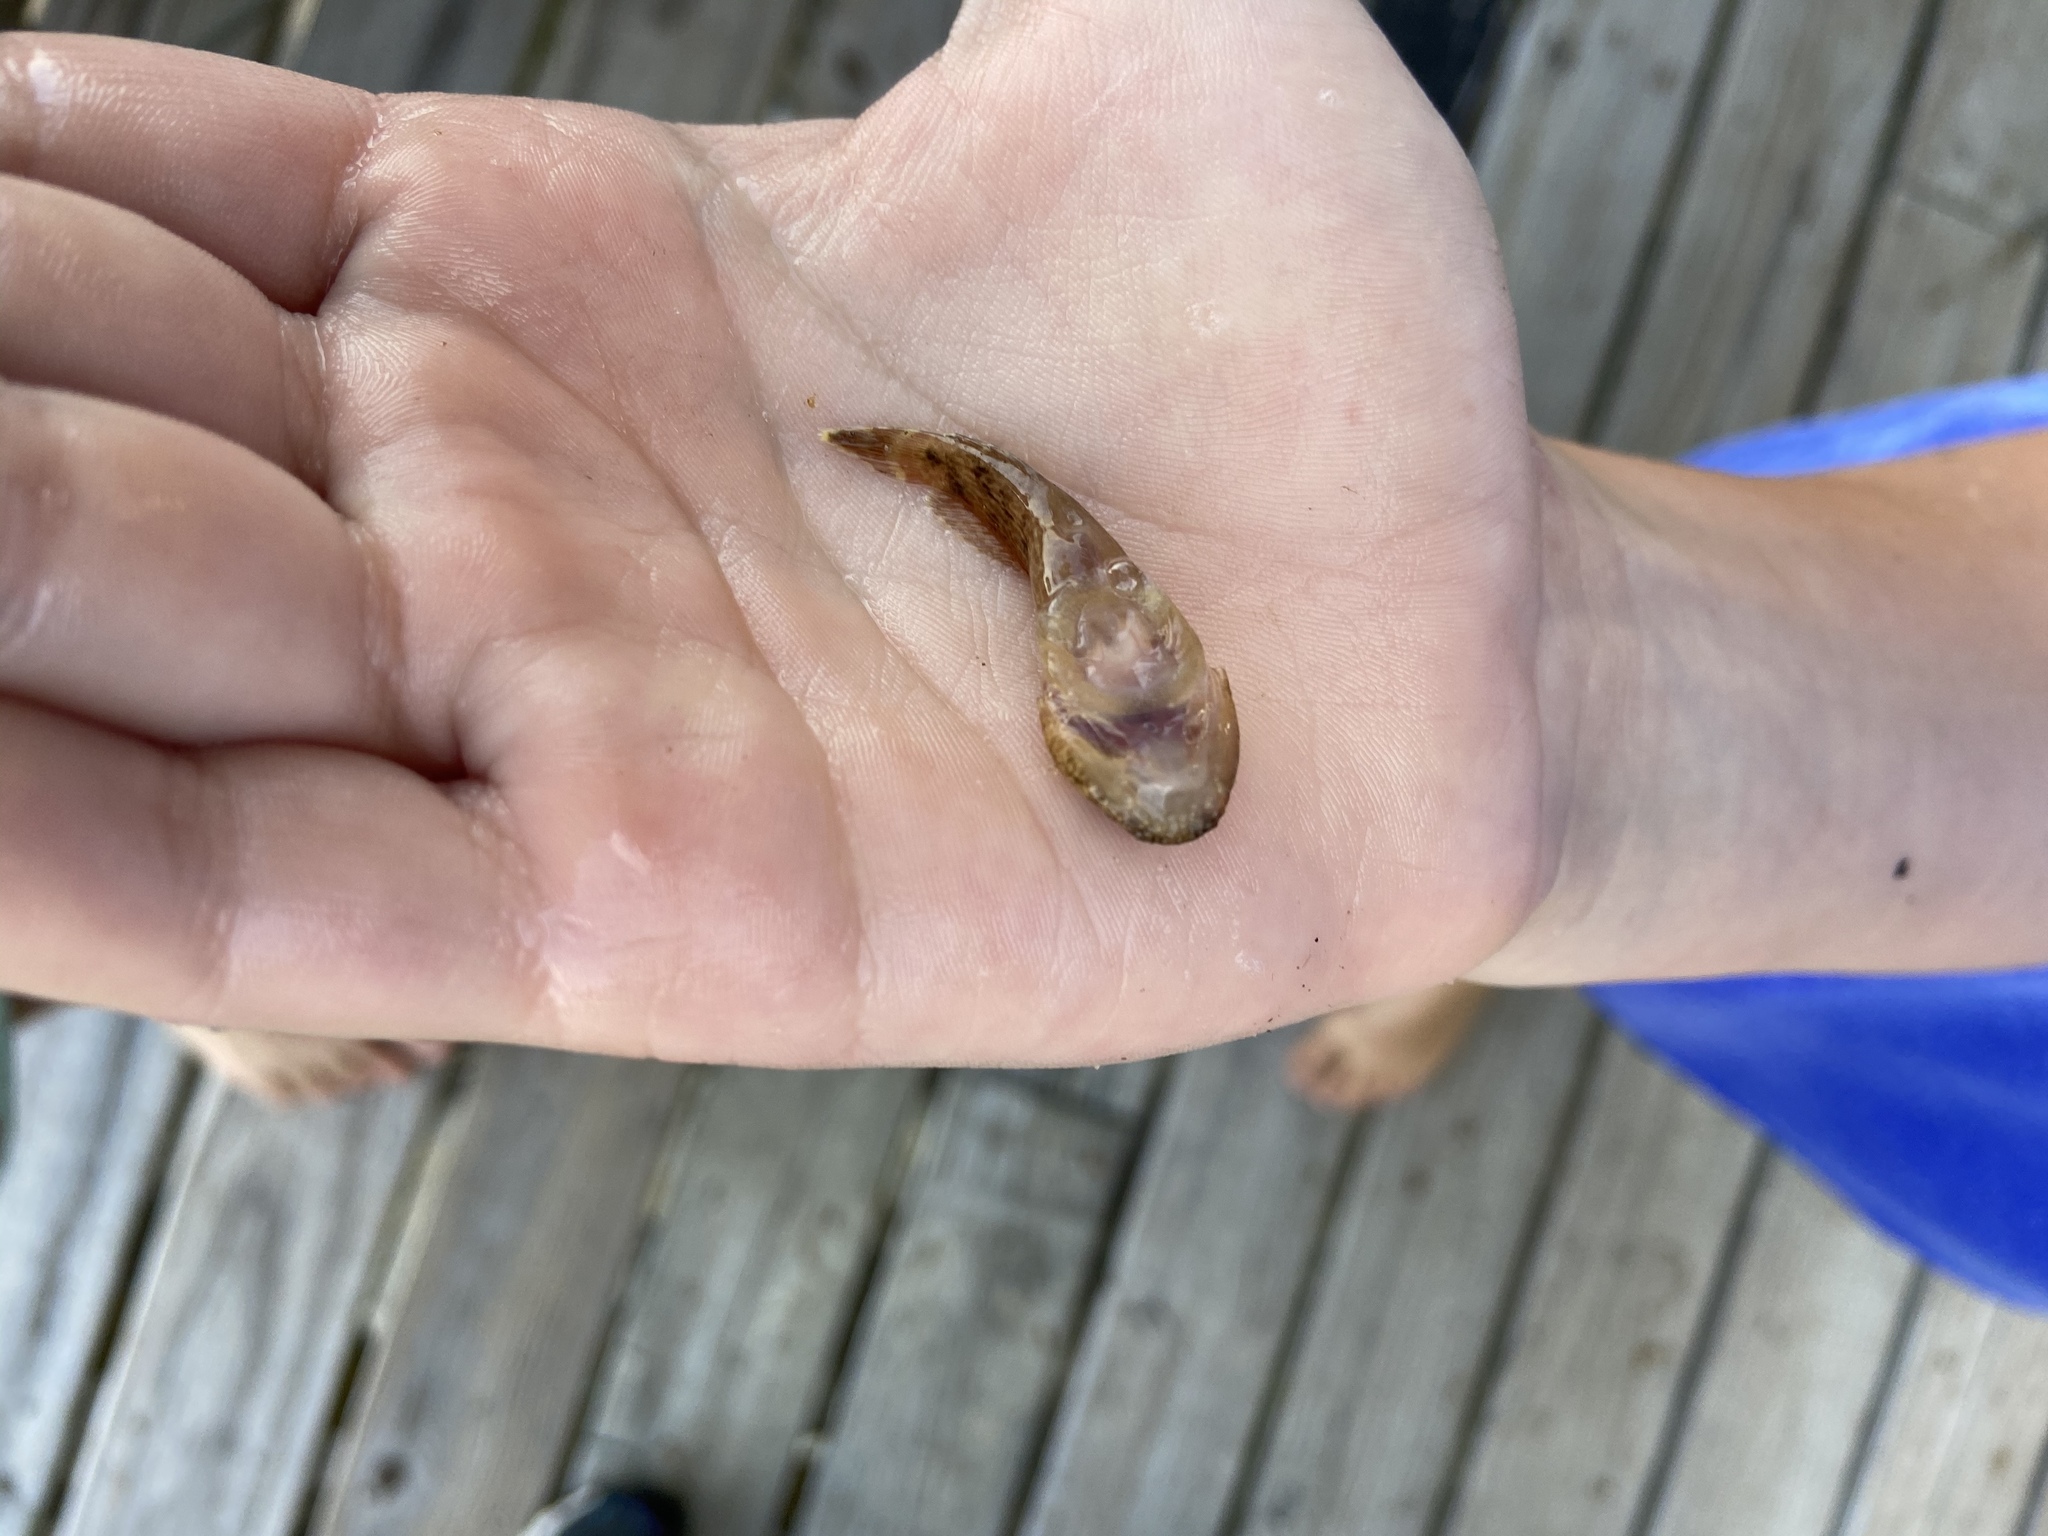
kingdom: Animalia
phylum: Chordata
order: Gobiesociformes
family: Gobiesocidae
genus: Gobiesox
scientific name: Gobiesox strumosus
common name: Skilletfish
